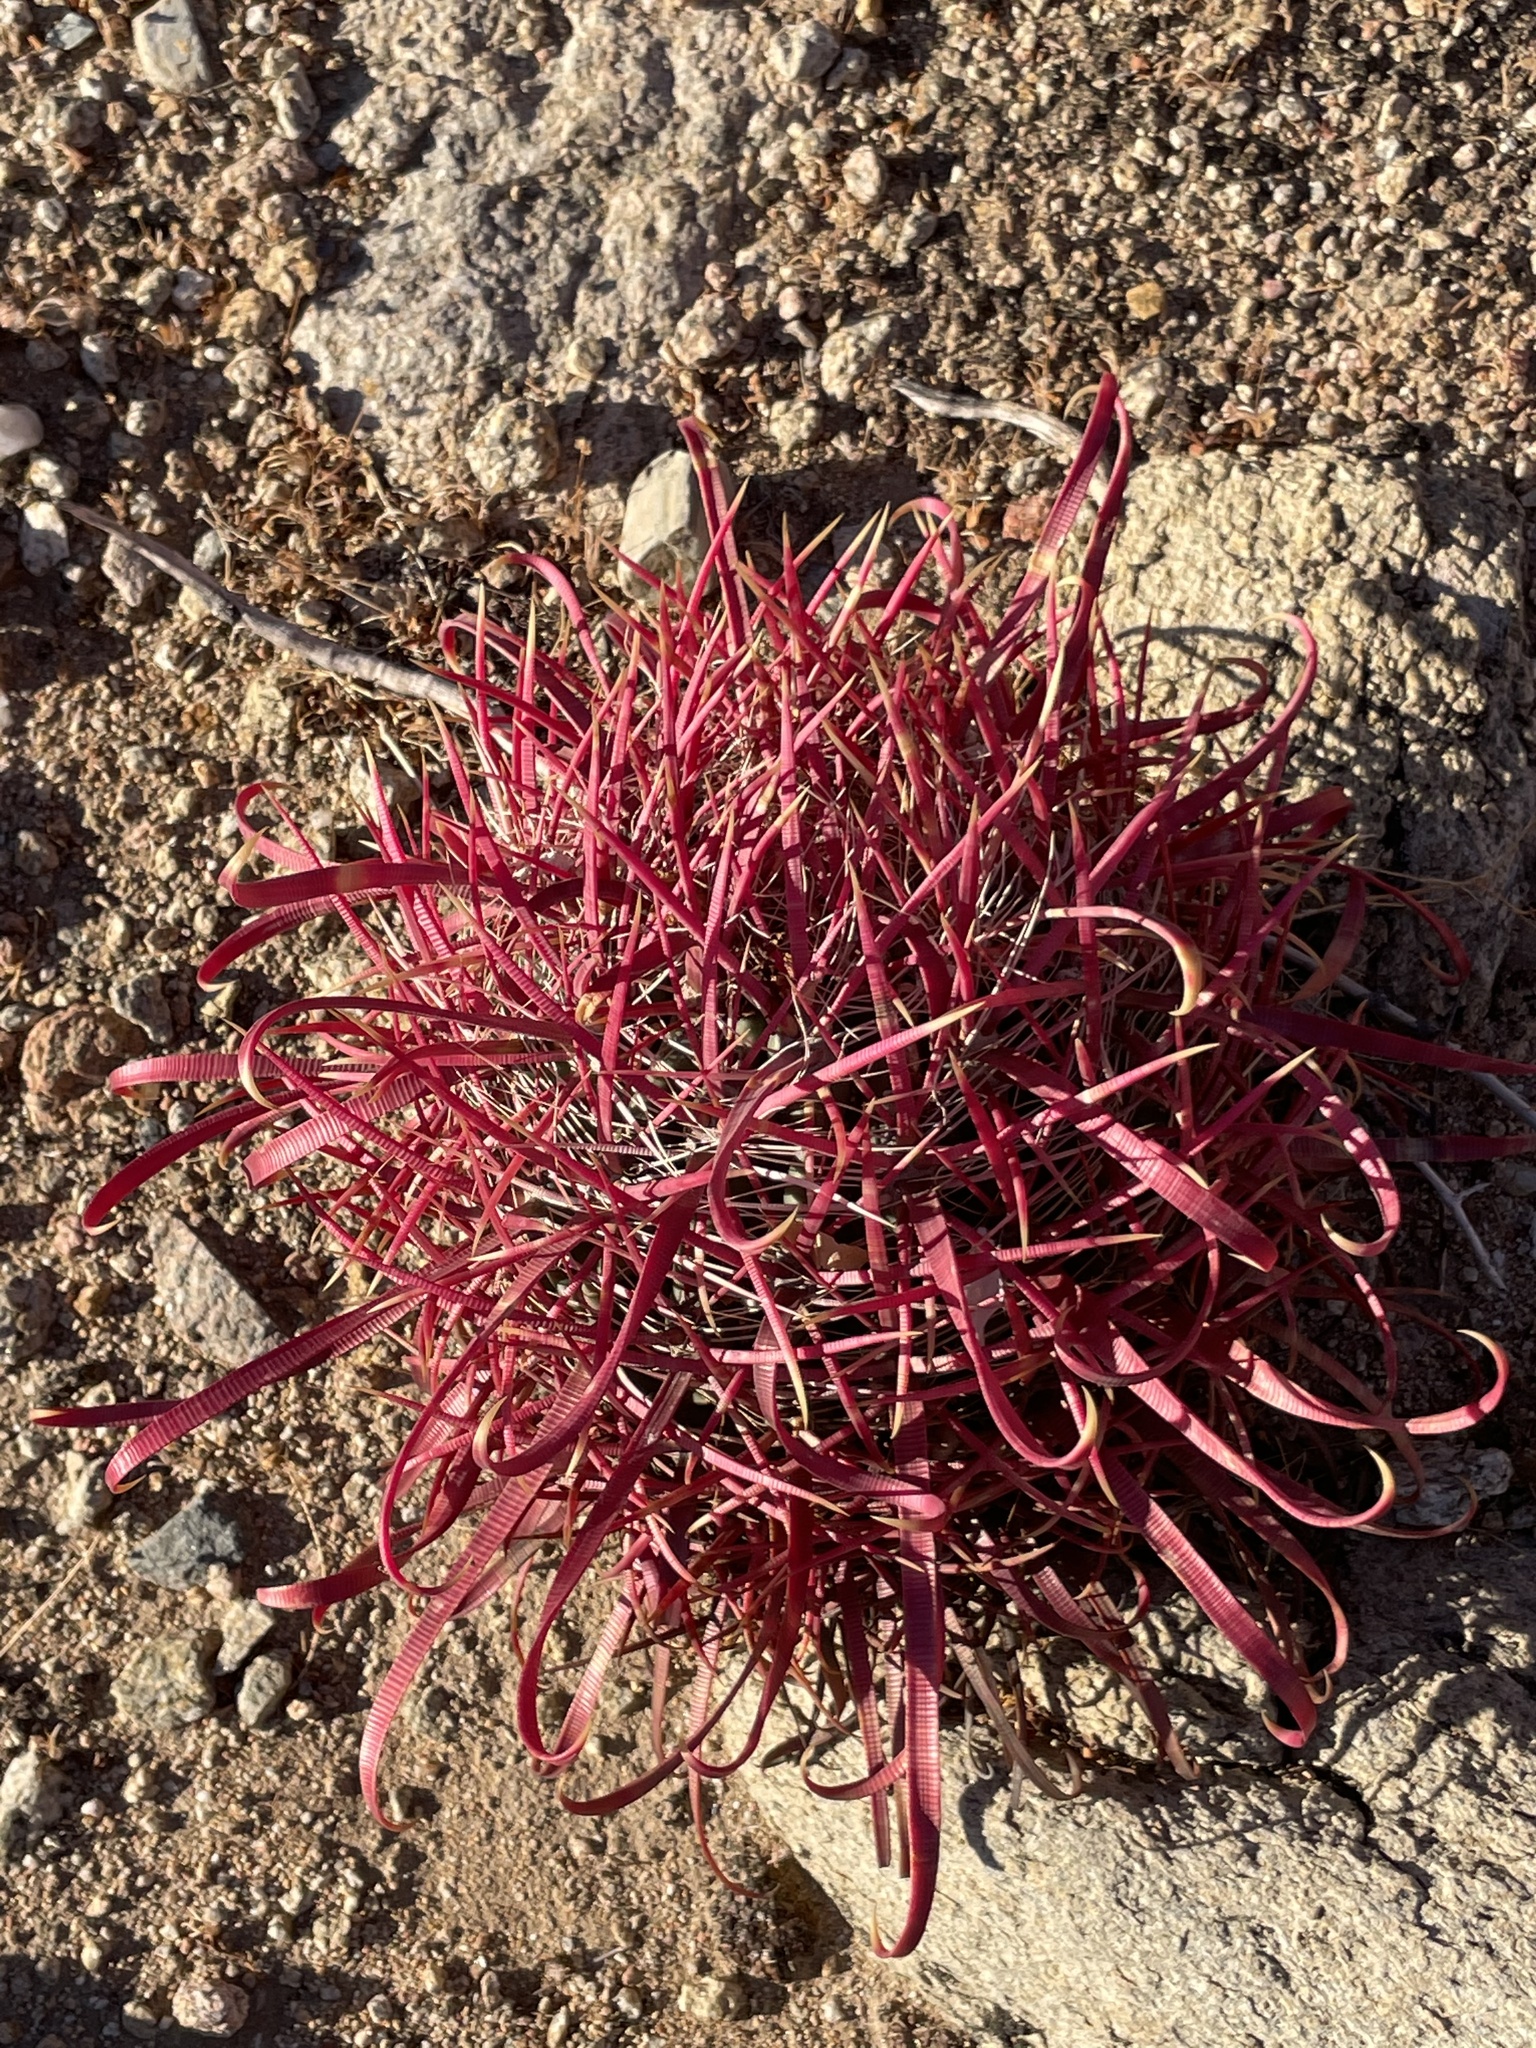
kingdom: Plantae
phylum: Tracheophyta
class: Magnoliopsida
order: Caryophyllales
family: Cactaceae
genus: Ferocactus
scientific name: Ferocactus gracilis
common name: Fire barrel cactus
